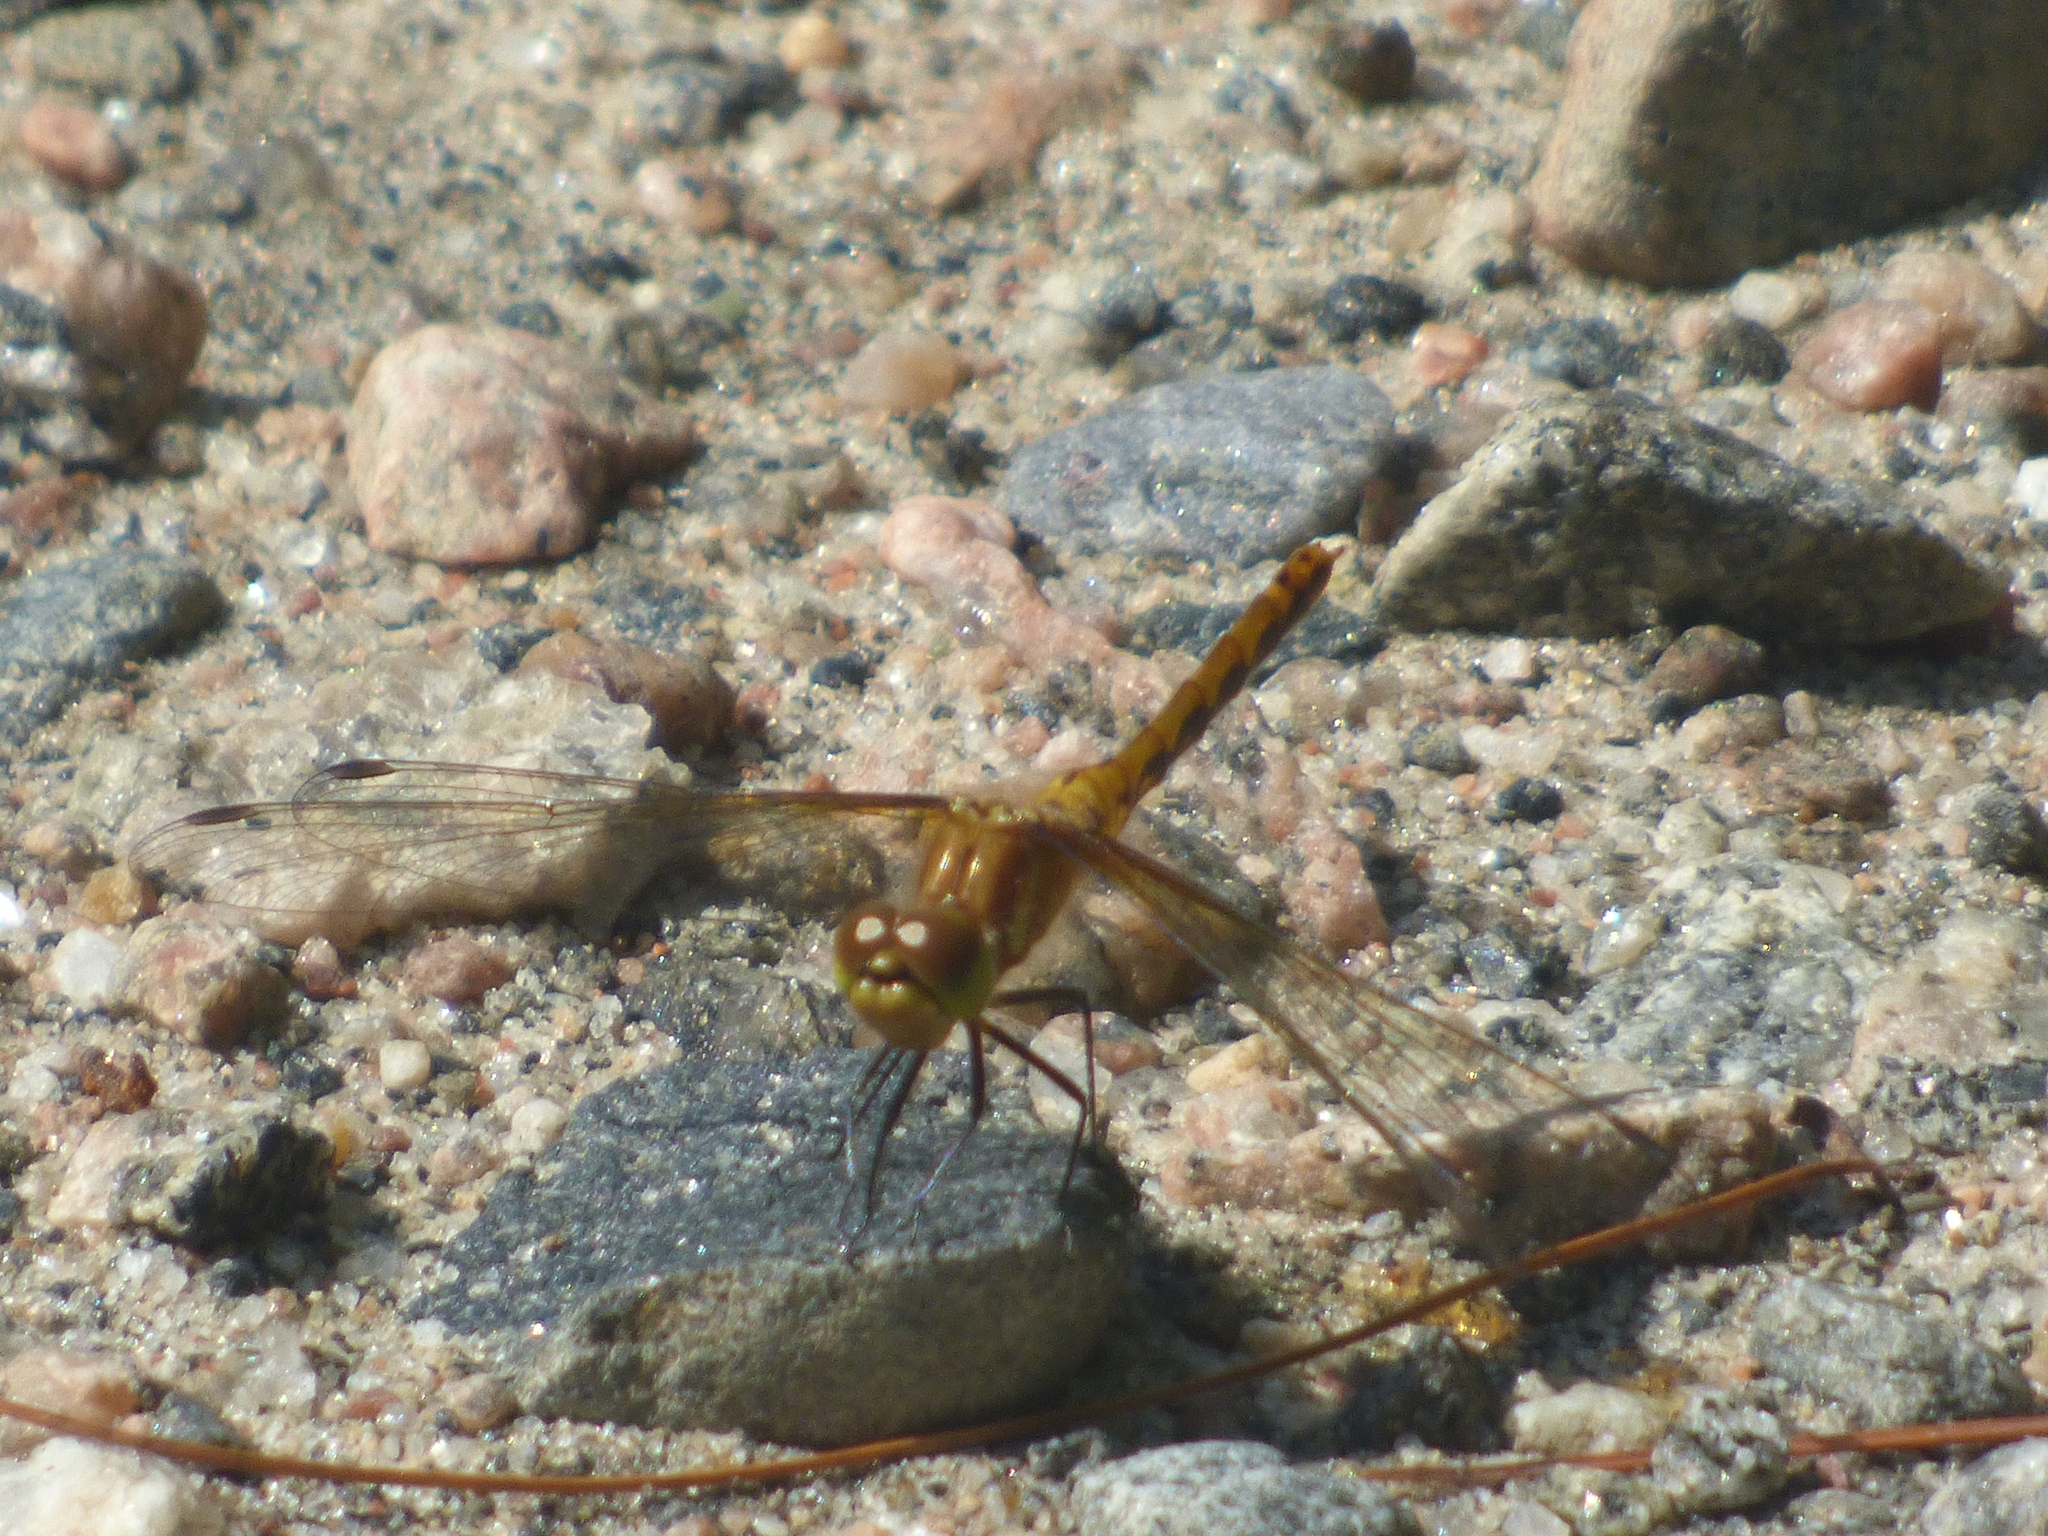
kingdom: Animalia
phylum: Arthropoda
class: Insecta
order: Odonata
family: Libellulidae
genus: Sympetrum
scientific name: Sympetrum
